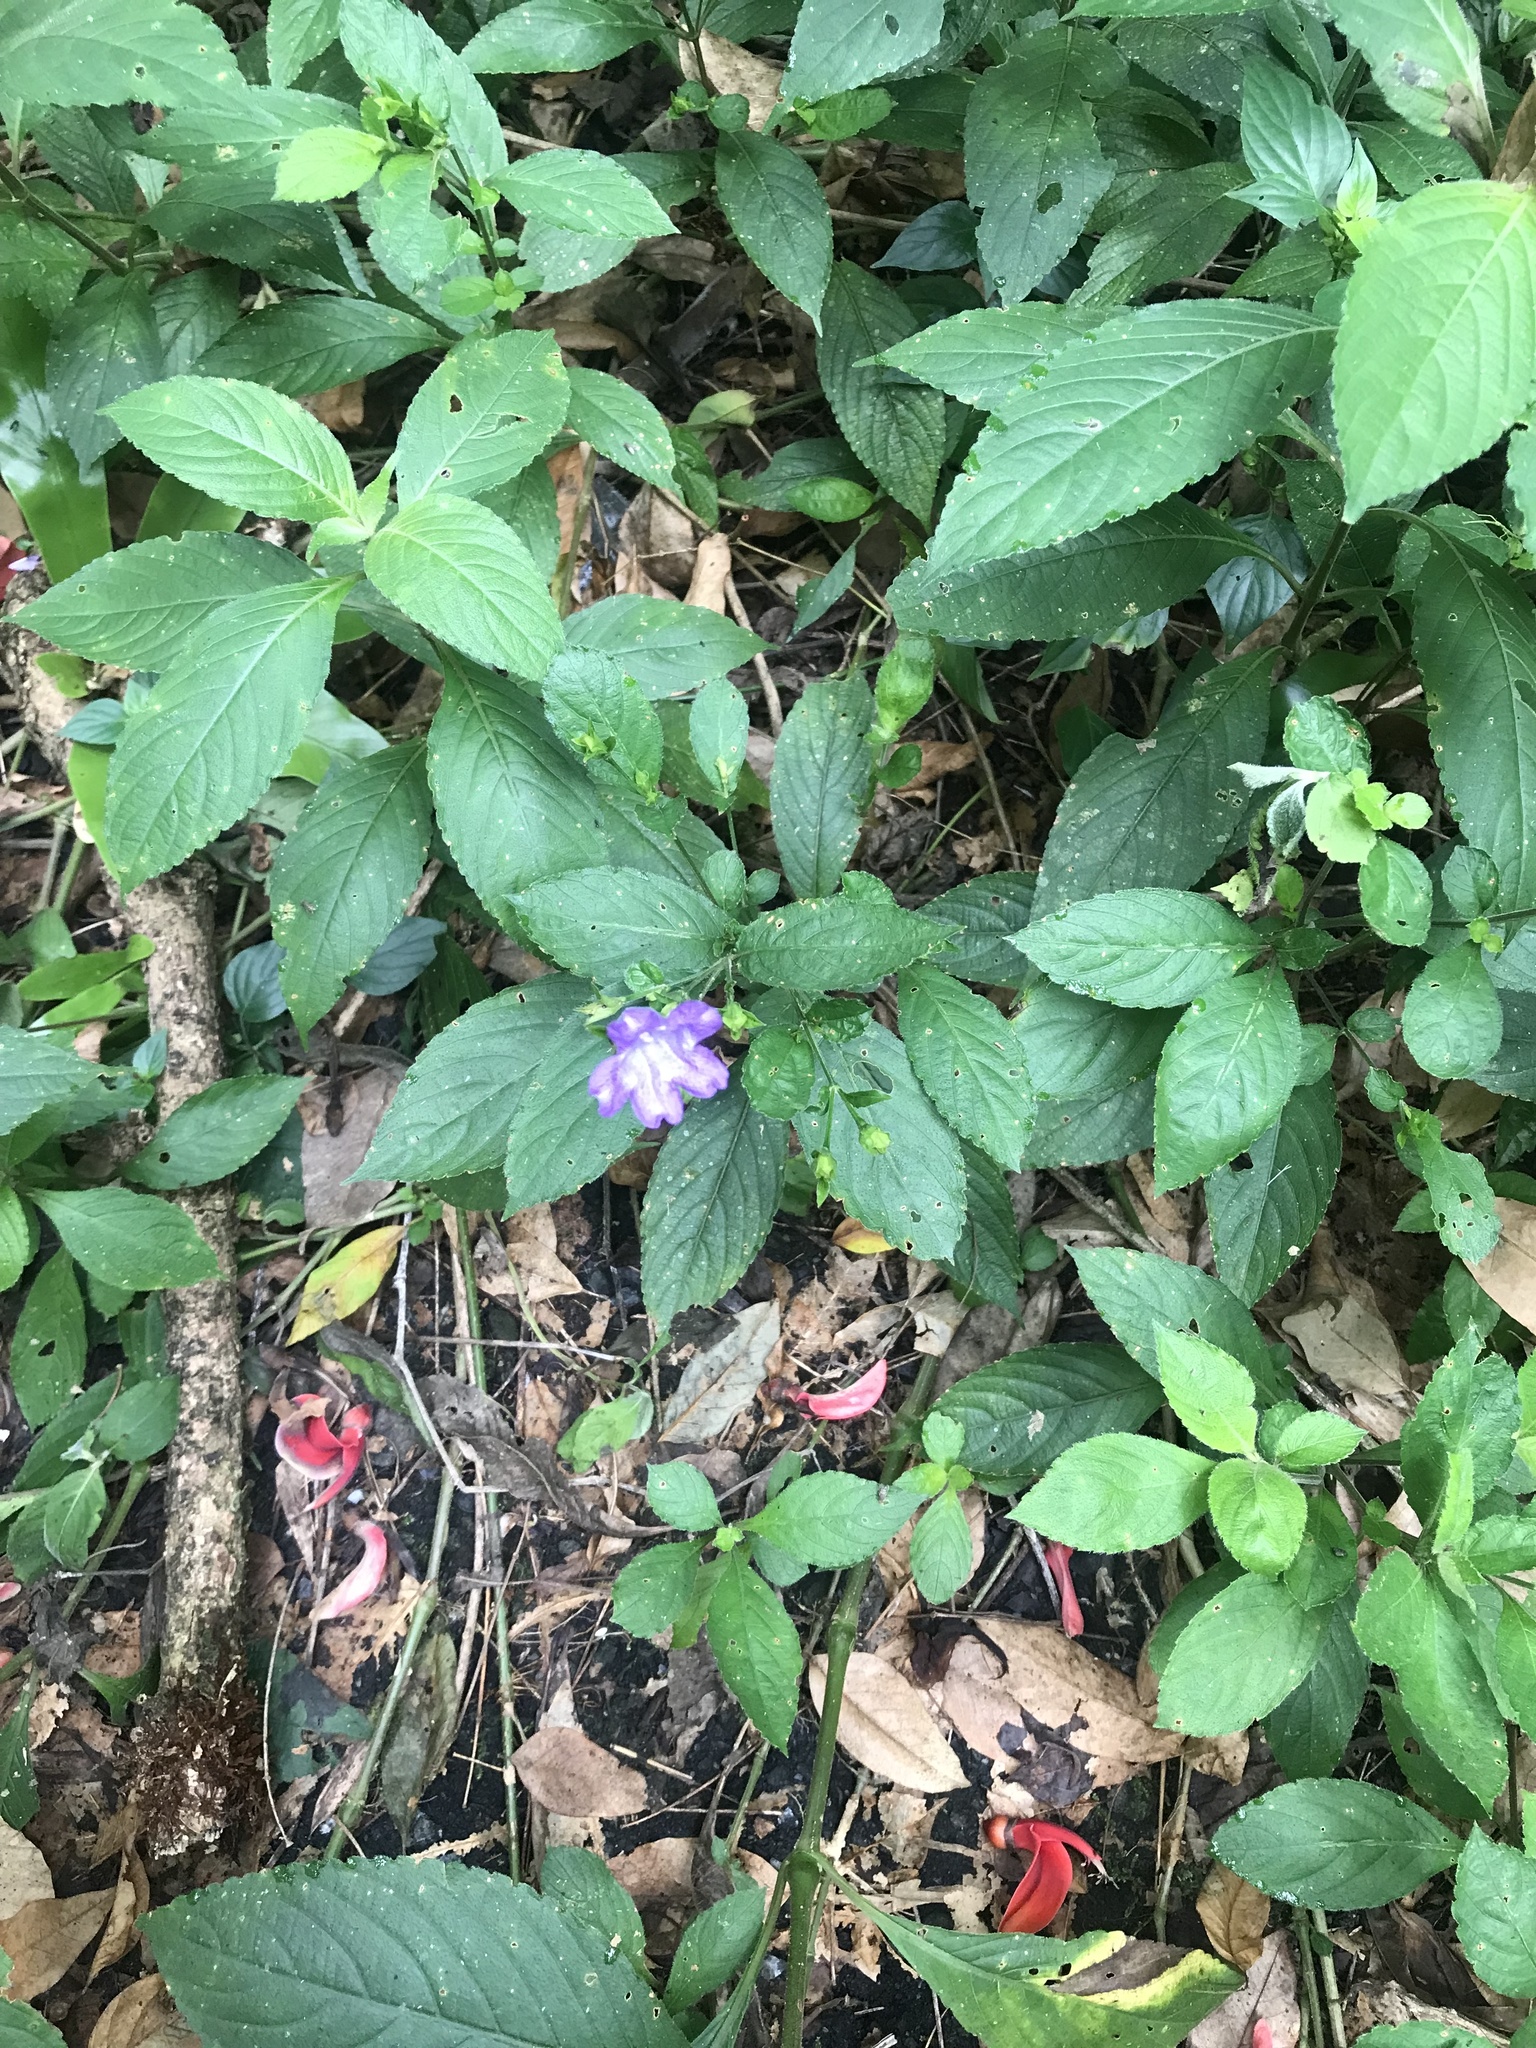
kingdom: Plantae
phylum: Tracheophyta
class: Magnoliopsida
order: Lamiales
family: Acanthaceae
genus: Strobilanthes
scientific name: Strobilanthes formosana
